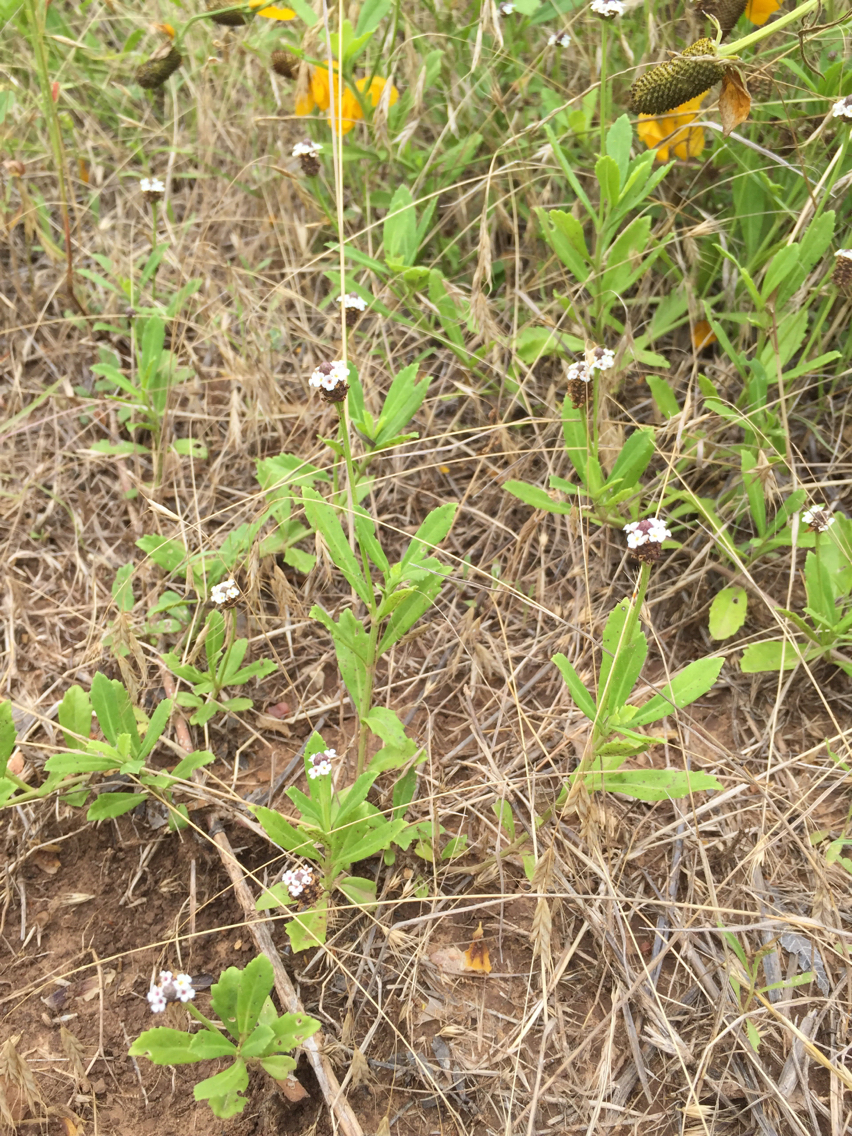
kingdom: Plantae
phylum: Tracheophyta
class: Magnoliopsida
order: Lamiales
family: Verbenaceae
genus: Phyla
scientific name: Phyla nodiflora
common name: Frogfruit
